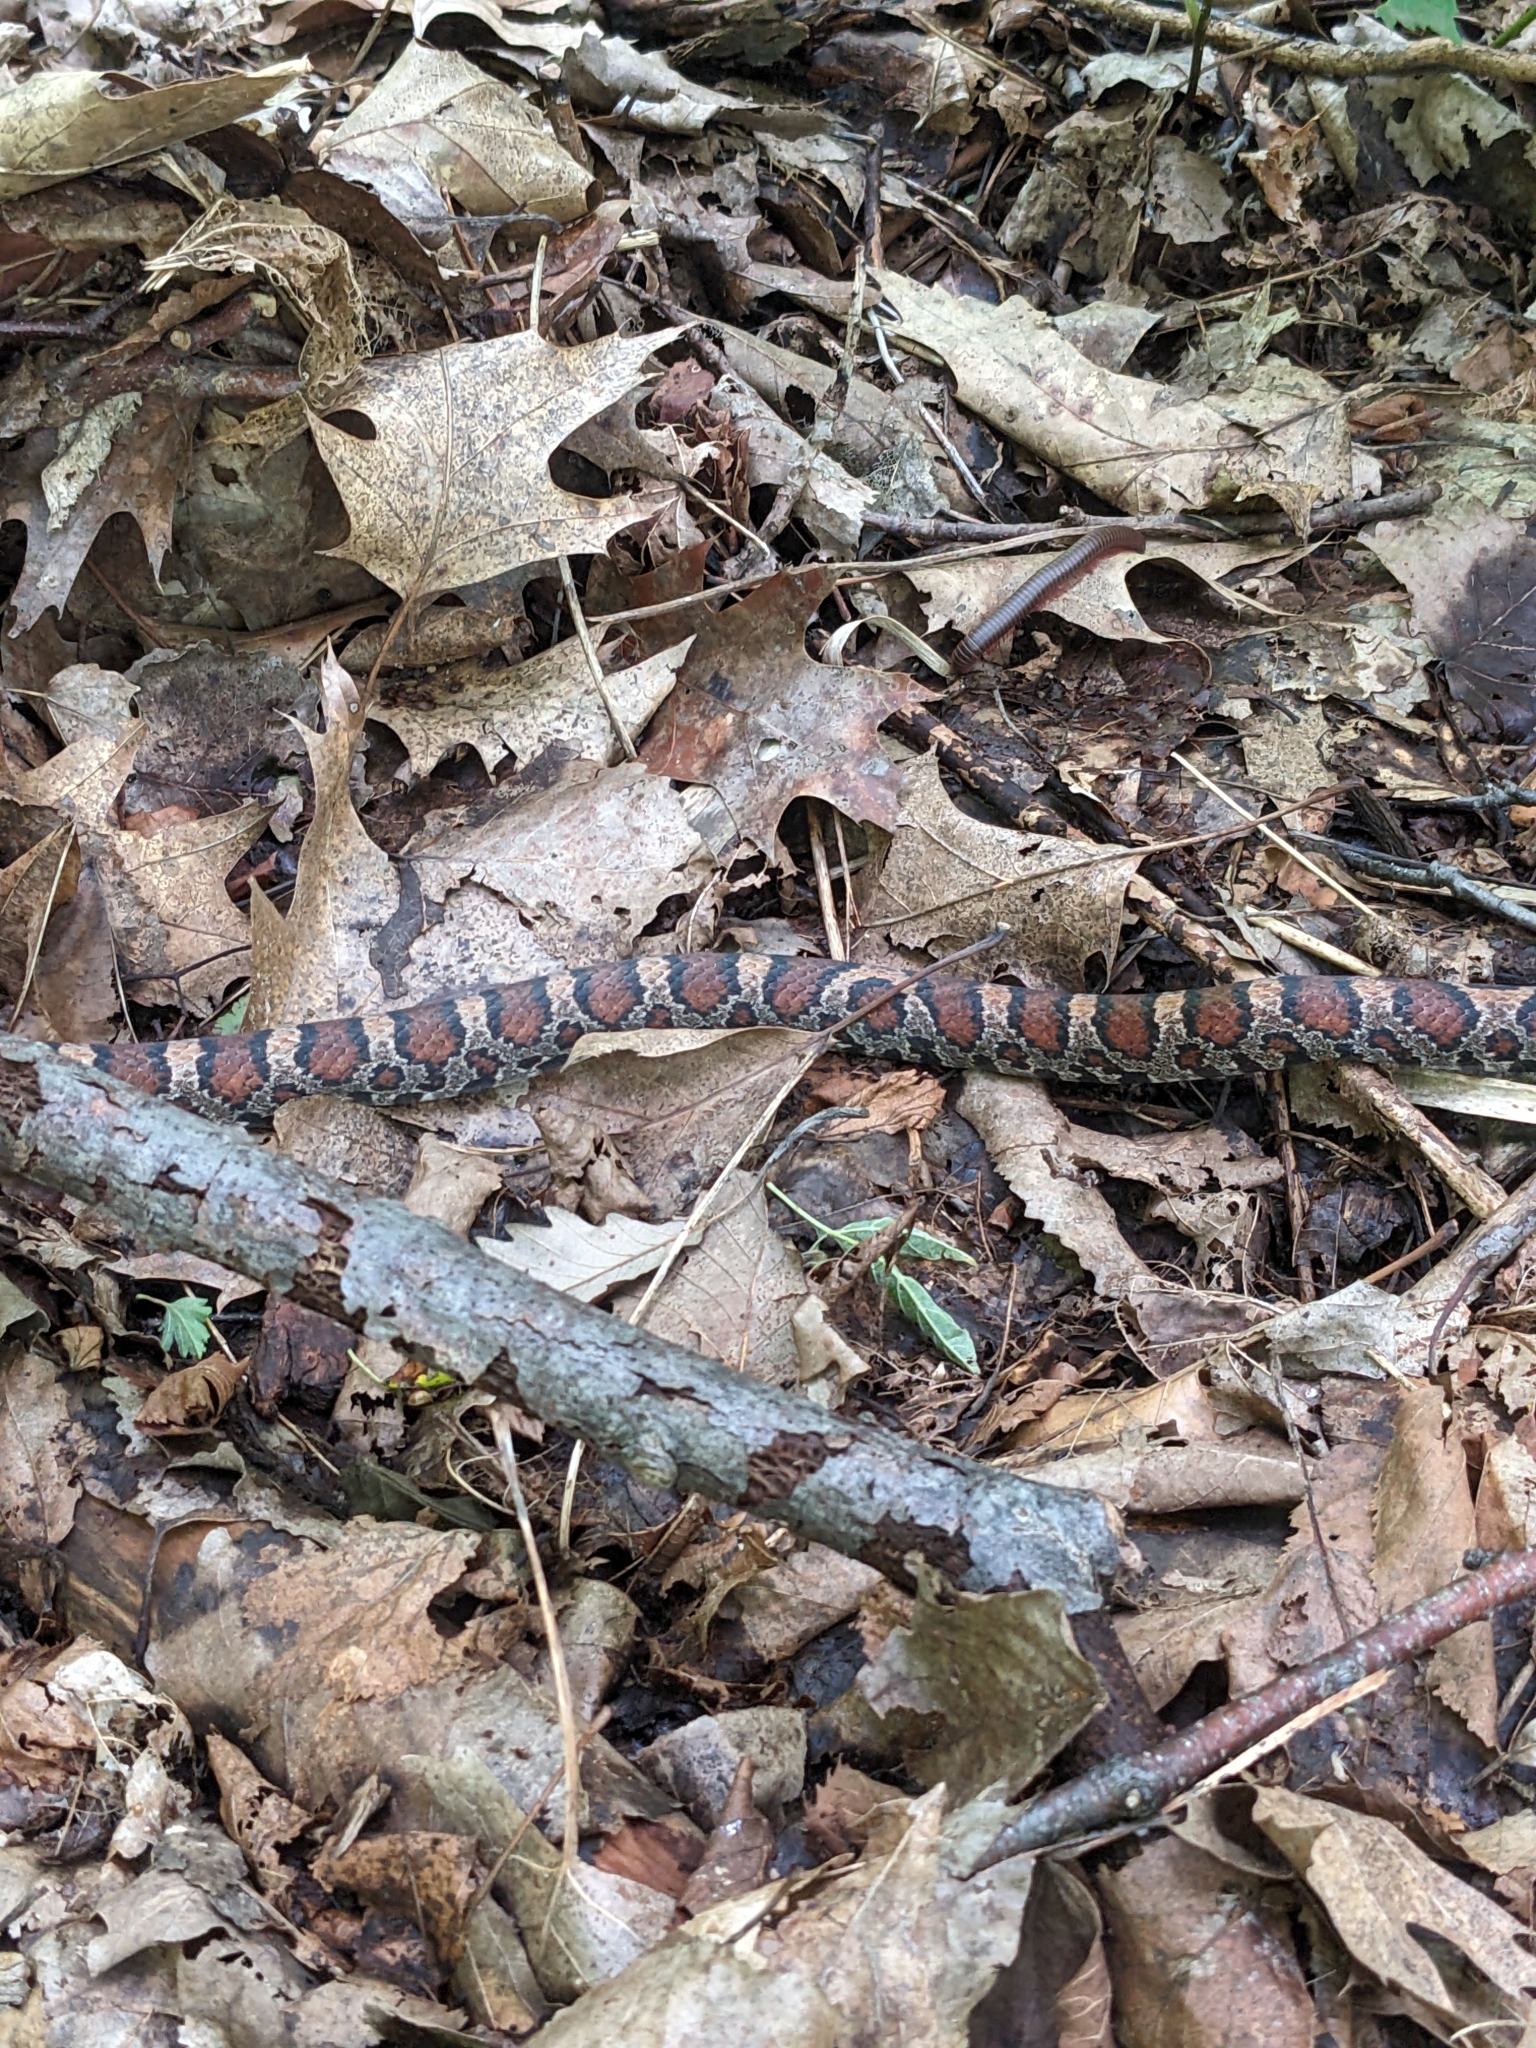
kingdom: Animalia
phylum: Chordata
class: Squamata
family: Colubridae
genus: Lampropeltis
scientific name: Lampropeltis triangulum
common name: Eastern milksnake
